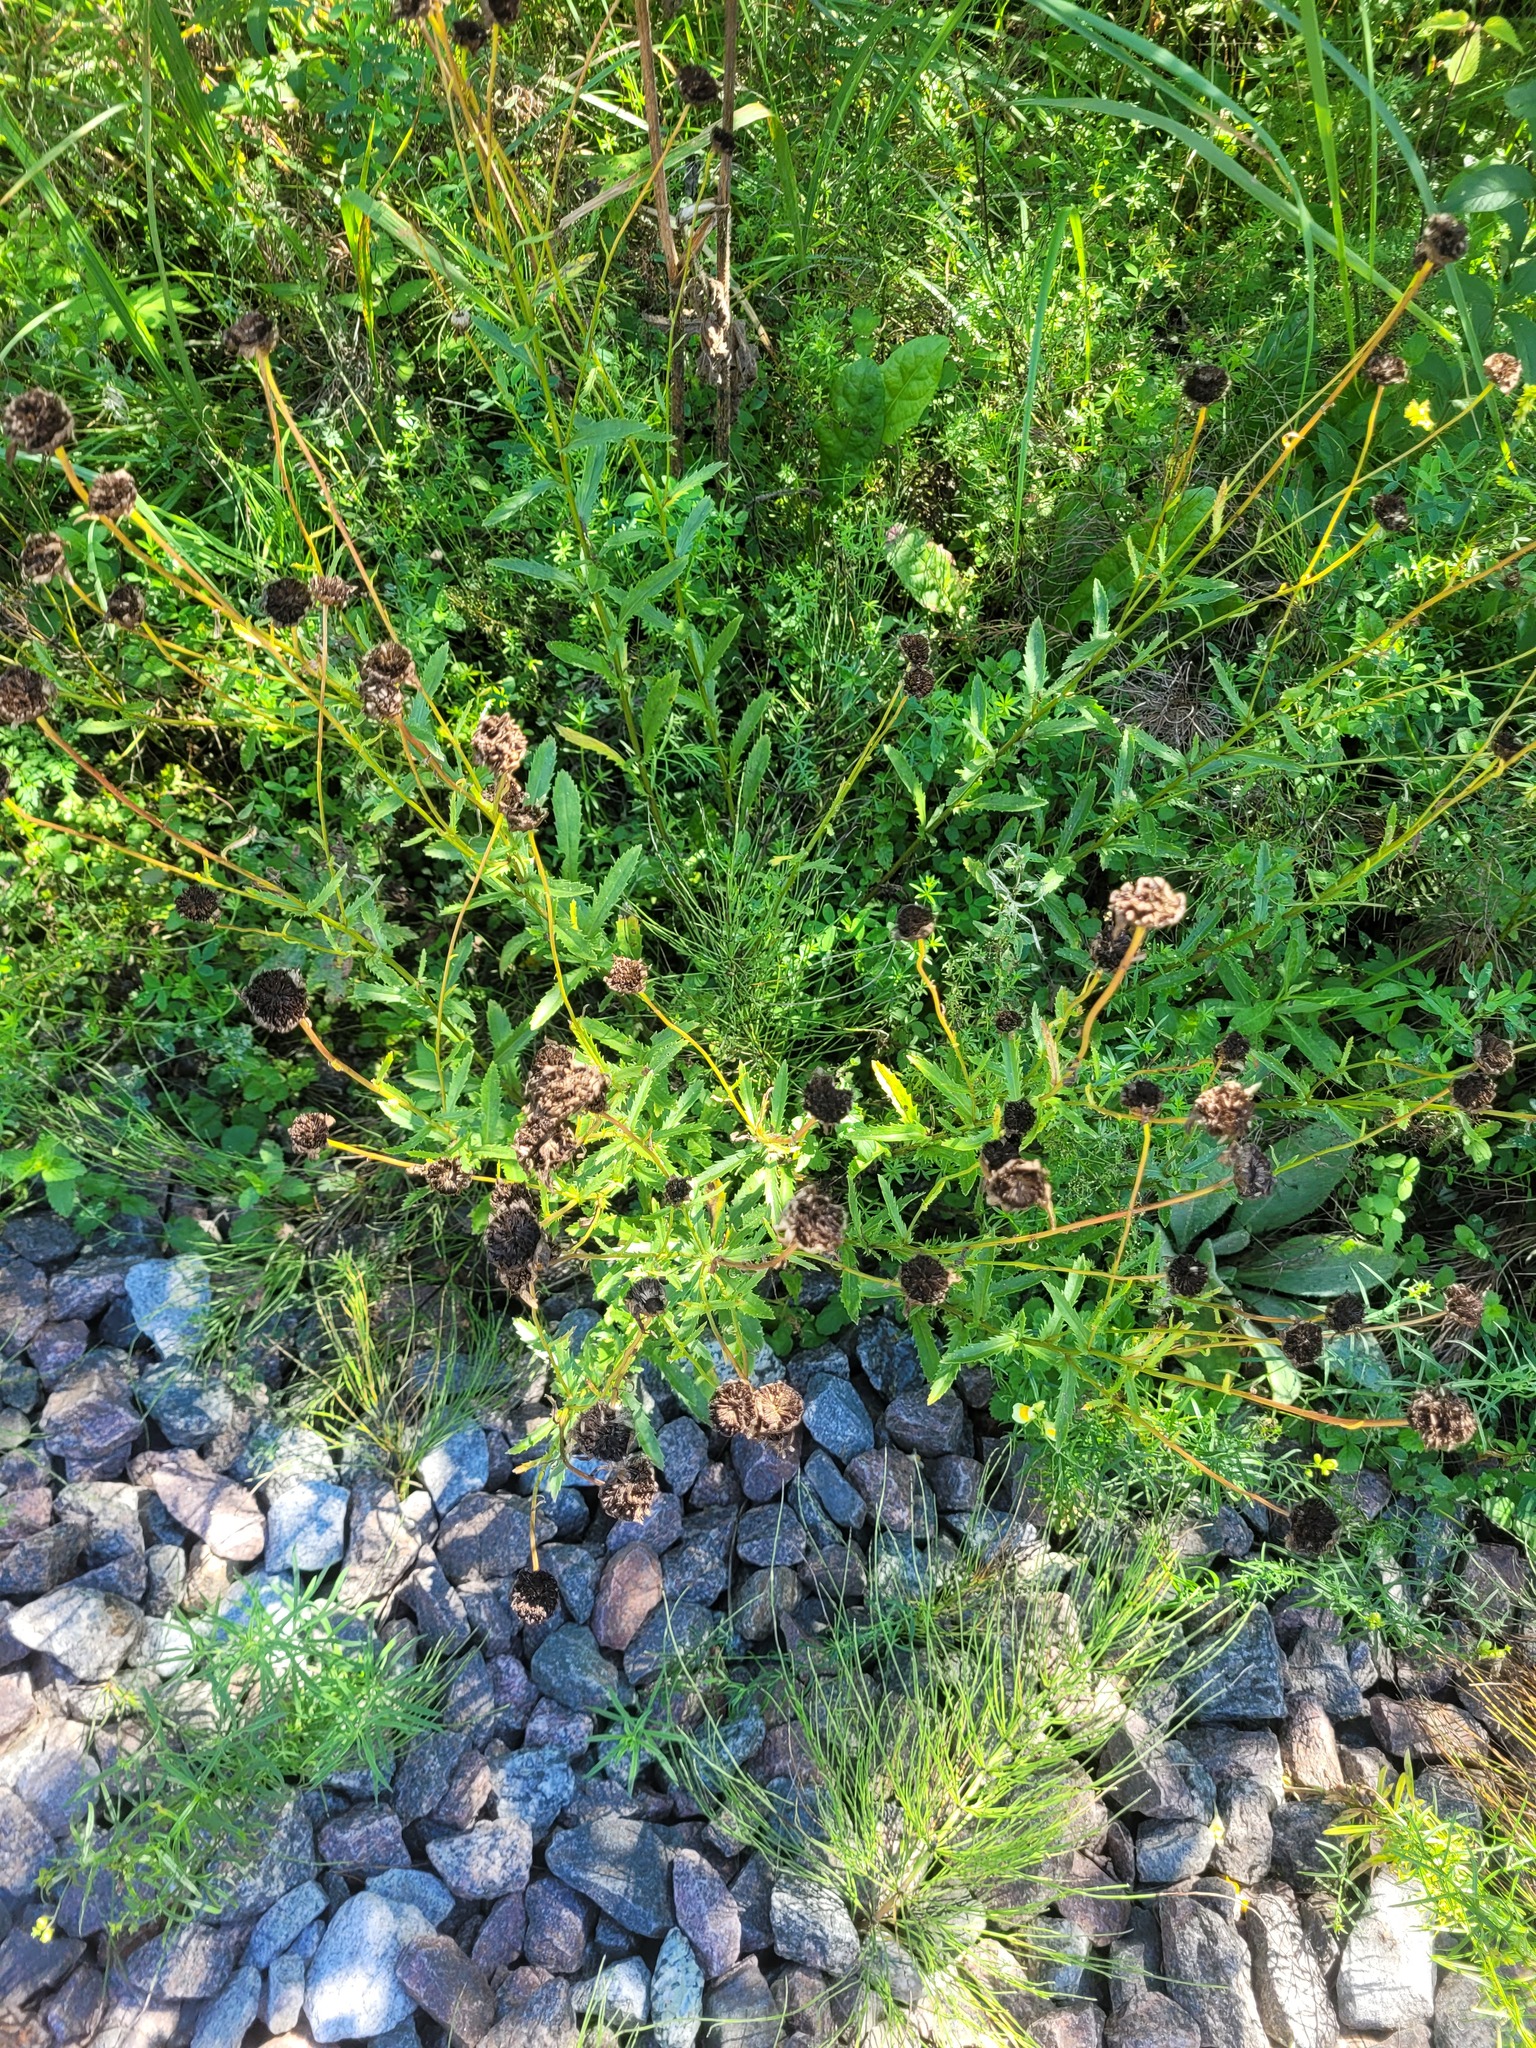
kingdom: Plantae
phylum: Tracheophyta
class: Magnoliopsida
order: Asterales
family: Asteraceae
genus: Leucanthemum
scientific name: Leucanthemum vulgare
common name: Oxeye daisy
